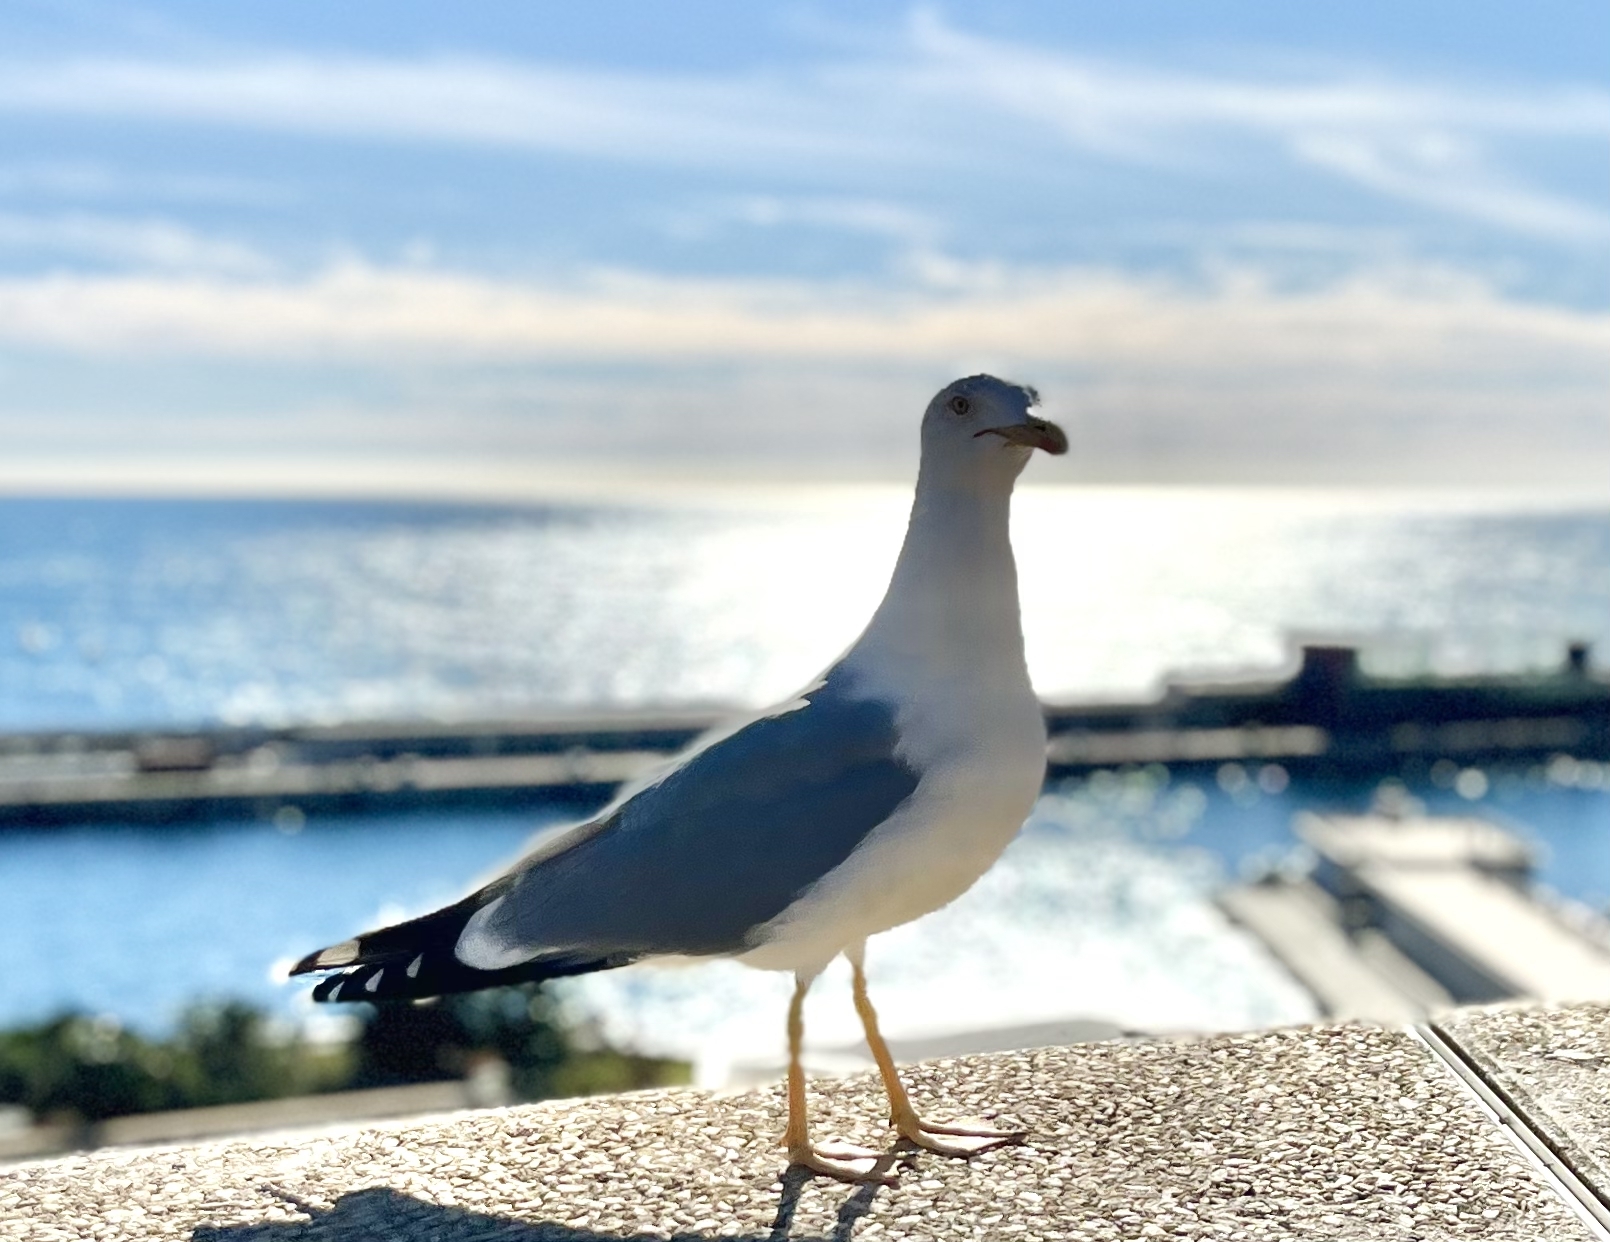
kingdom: Animalia
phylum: Chordata
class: Aves
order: Charadriiformes
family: Laridae
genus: Larus
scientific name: Larus michahellis
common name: Yellow-legged gull
